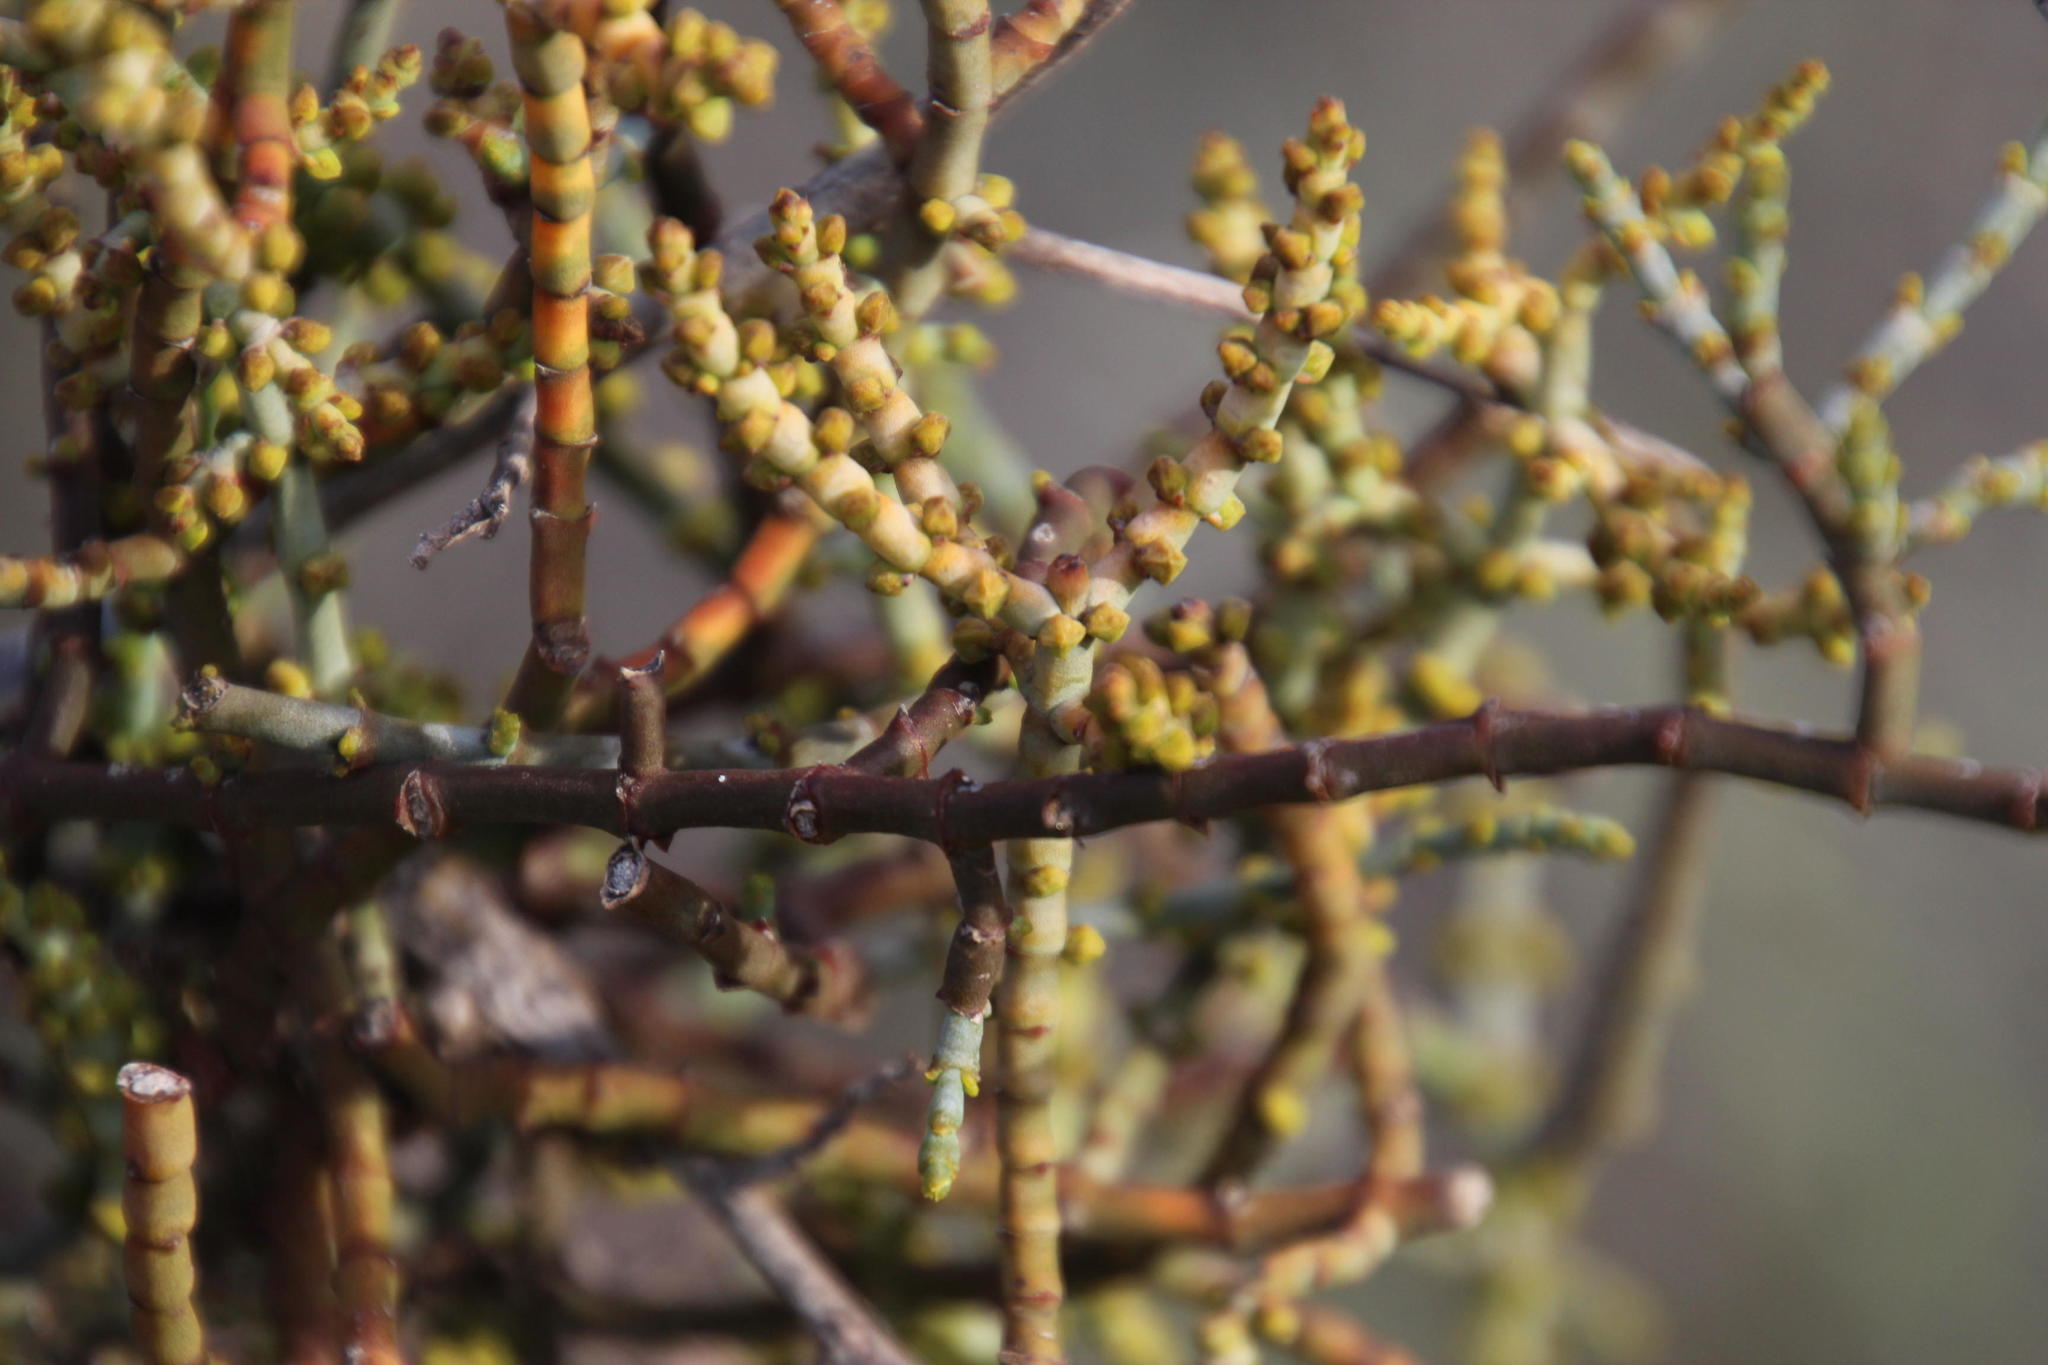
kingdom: Plantae
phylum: Tracheophyta
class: Magnoliopsida
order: Santalales
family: Viscaceae
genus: Viscum
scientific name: Viscum capense
